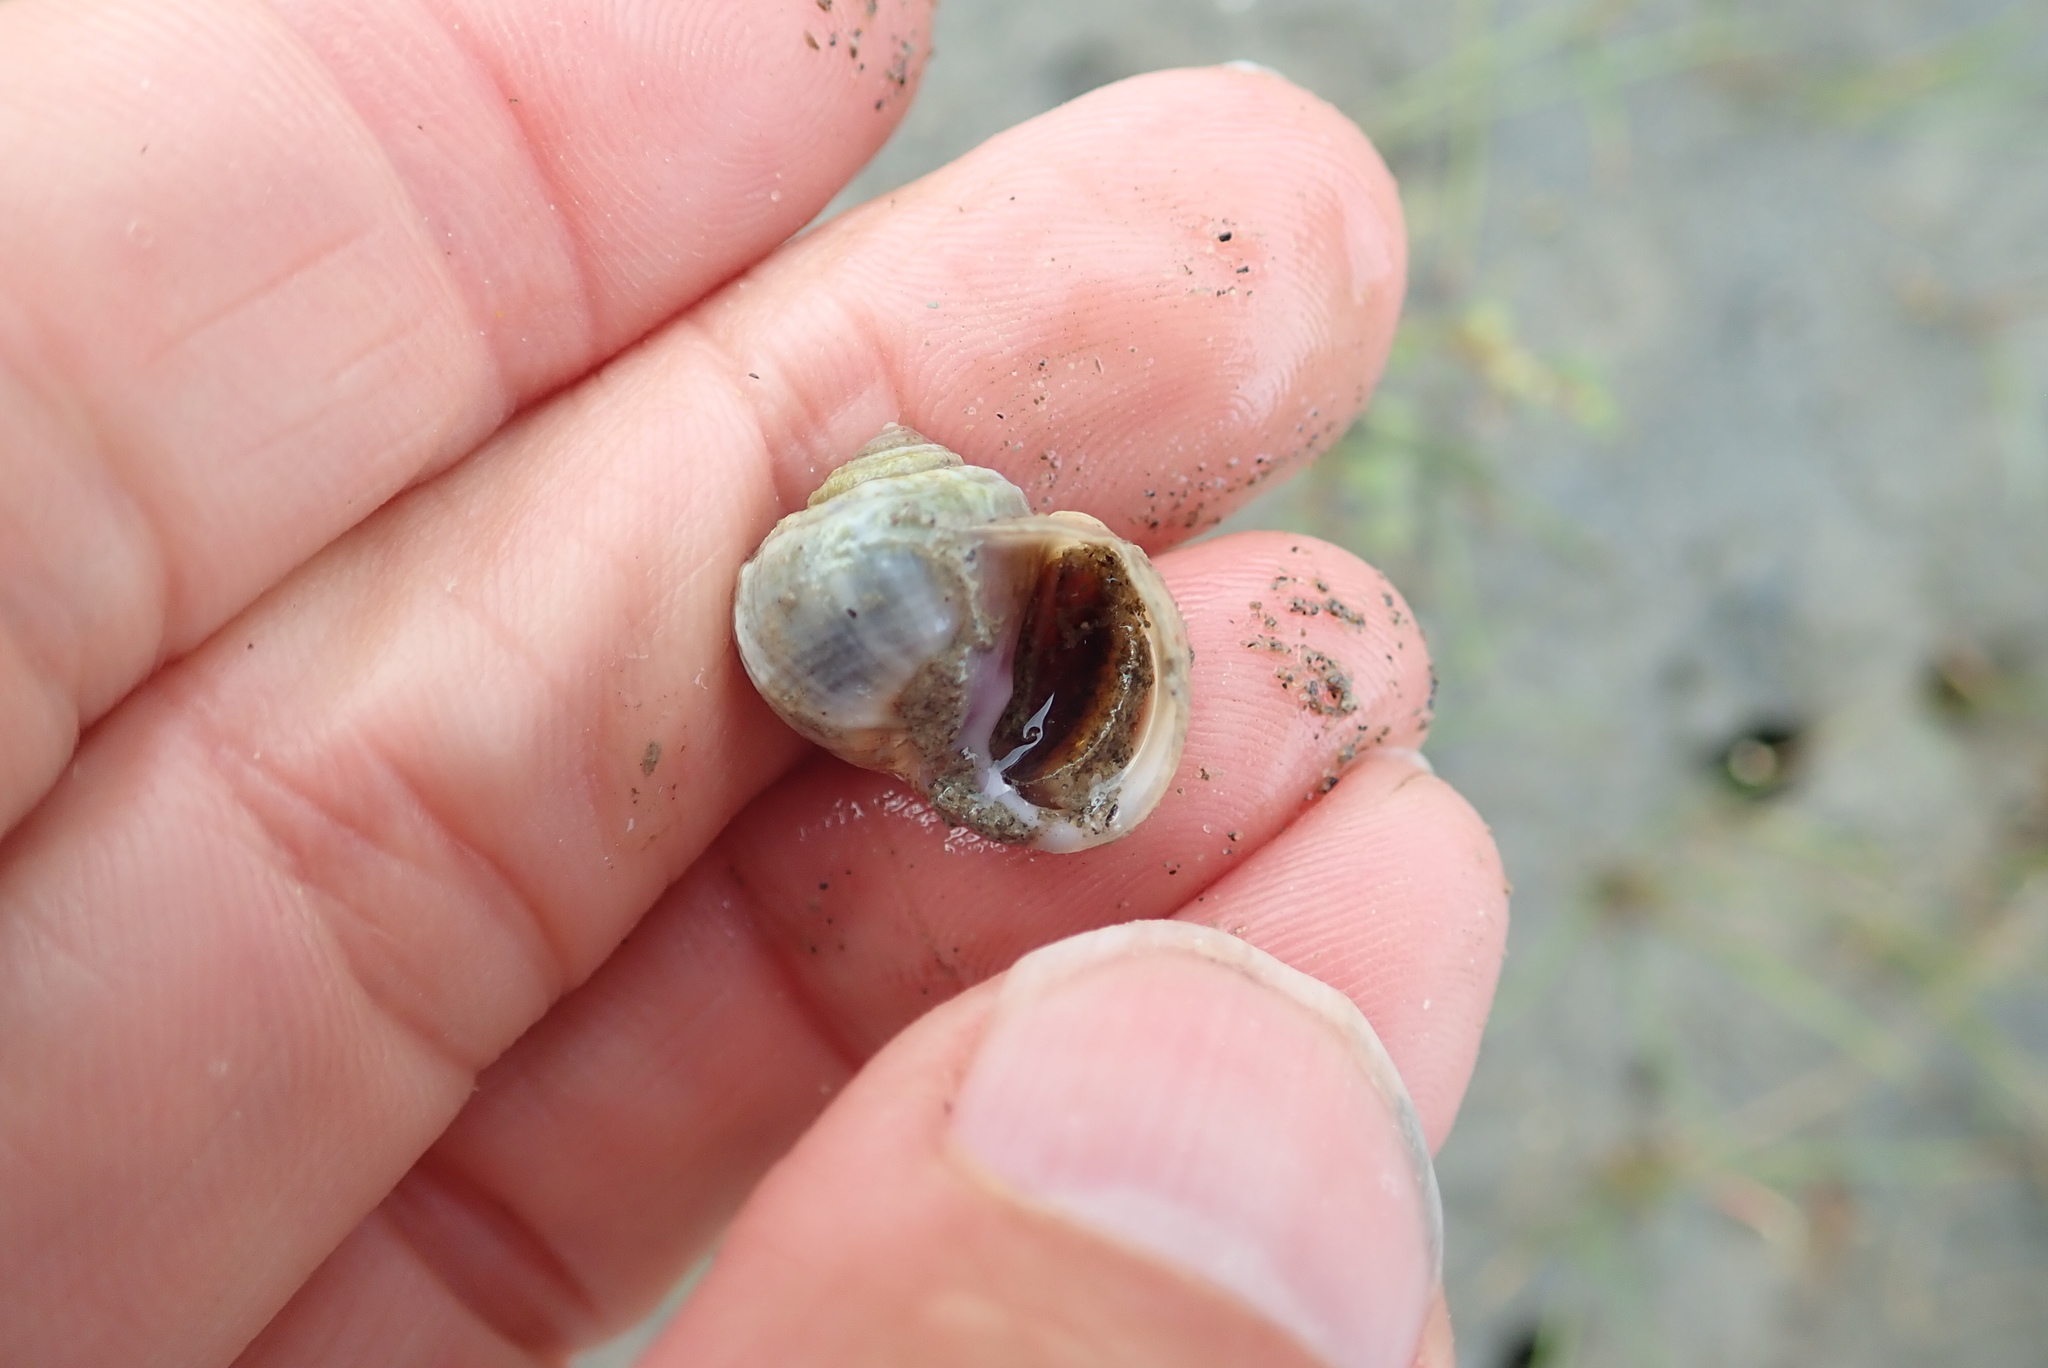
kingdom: Animalia
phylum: Mollusca
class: Gastropoda
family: Amphibolidae
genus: Amphibola
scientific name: Amphibola crenata
